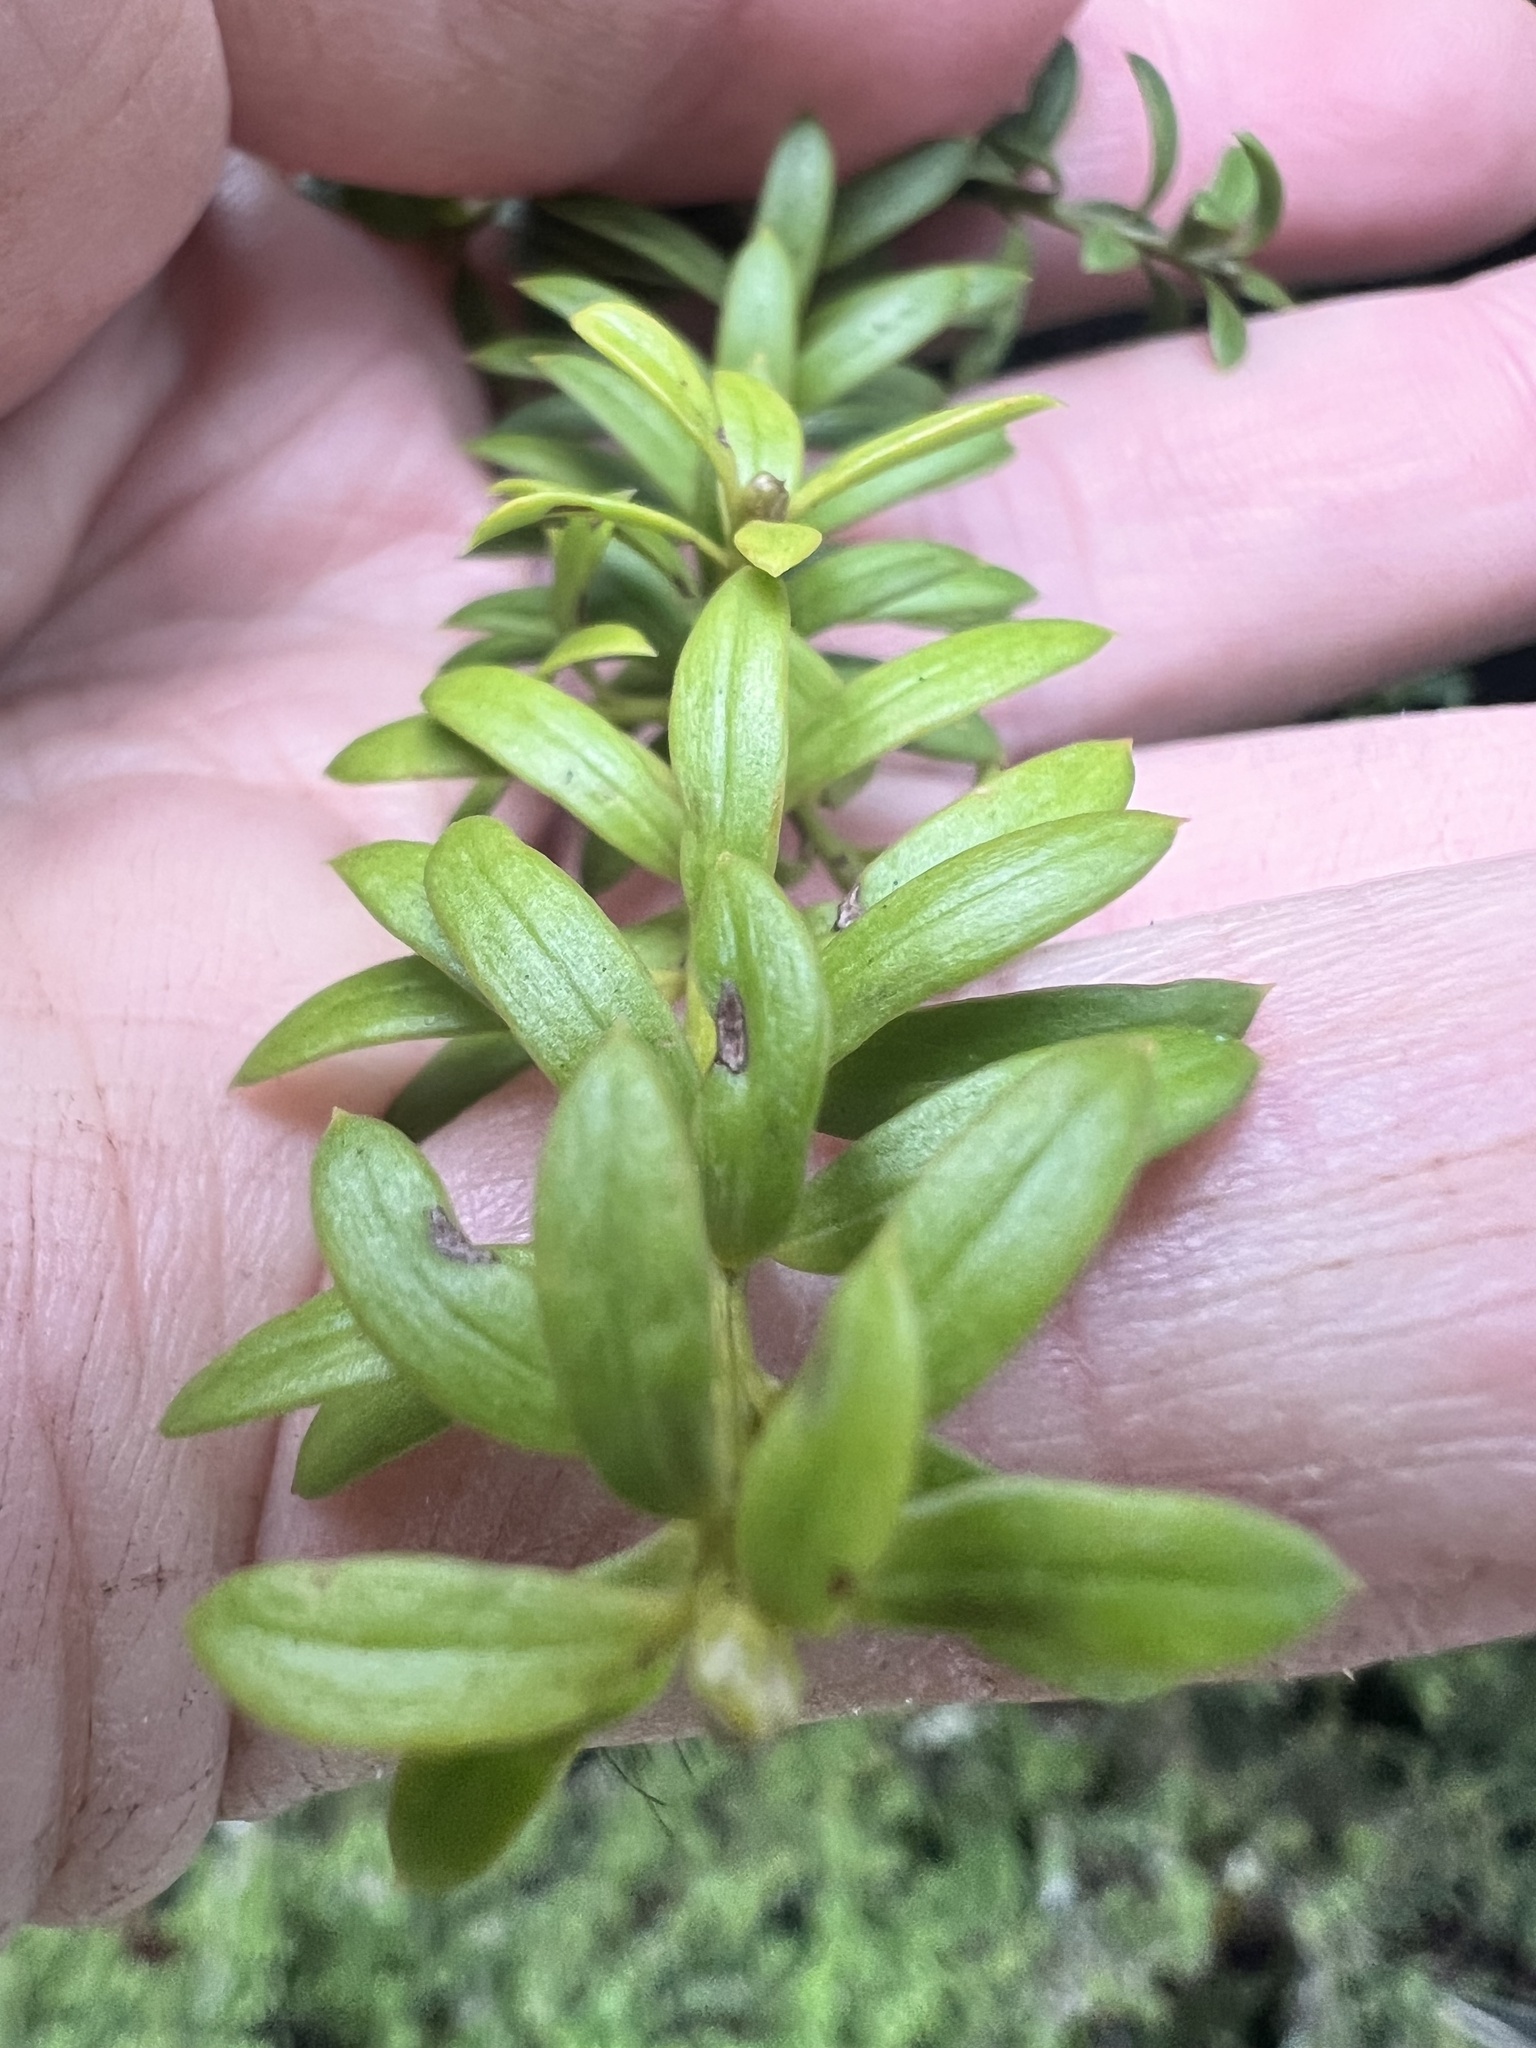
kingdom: Plantae
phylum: Tracheophyta
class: Pinopsida
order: Pinales
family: Podocarpaceae
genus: Podocarpus
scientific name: Podocarpus nivalis
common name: Alpine totara
